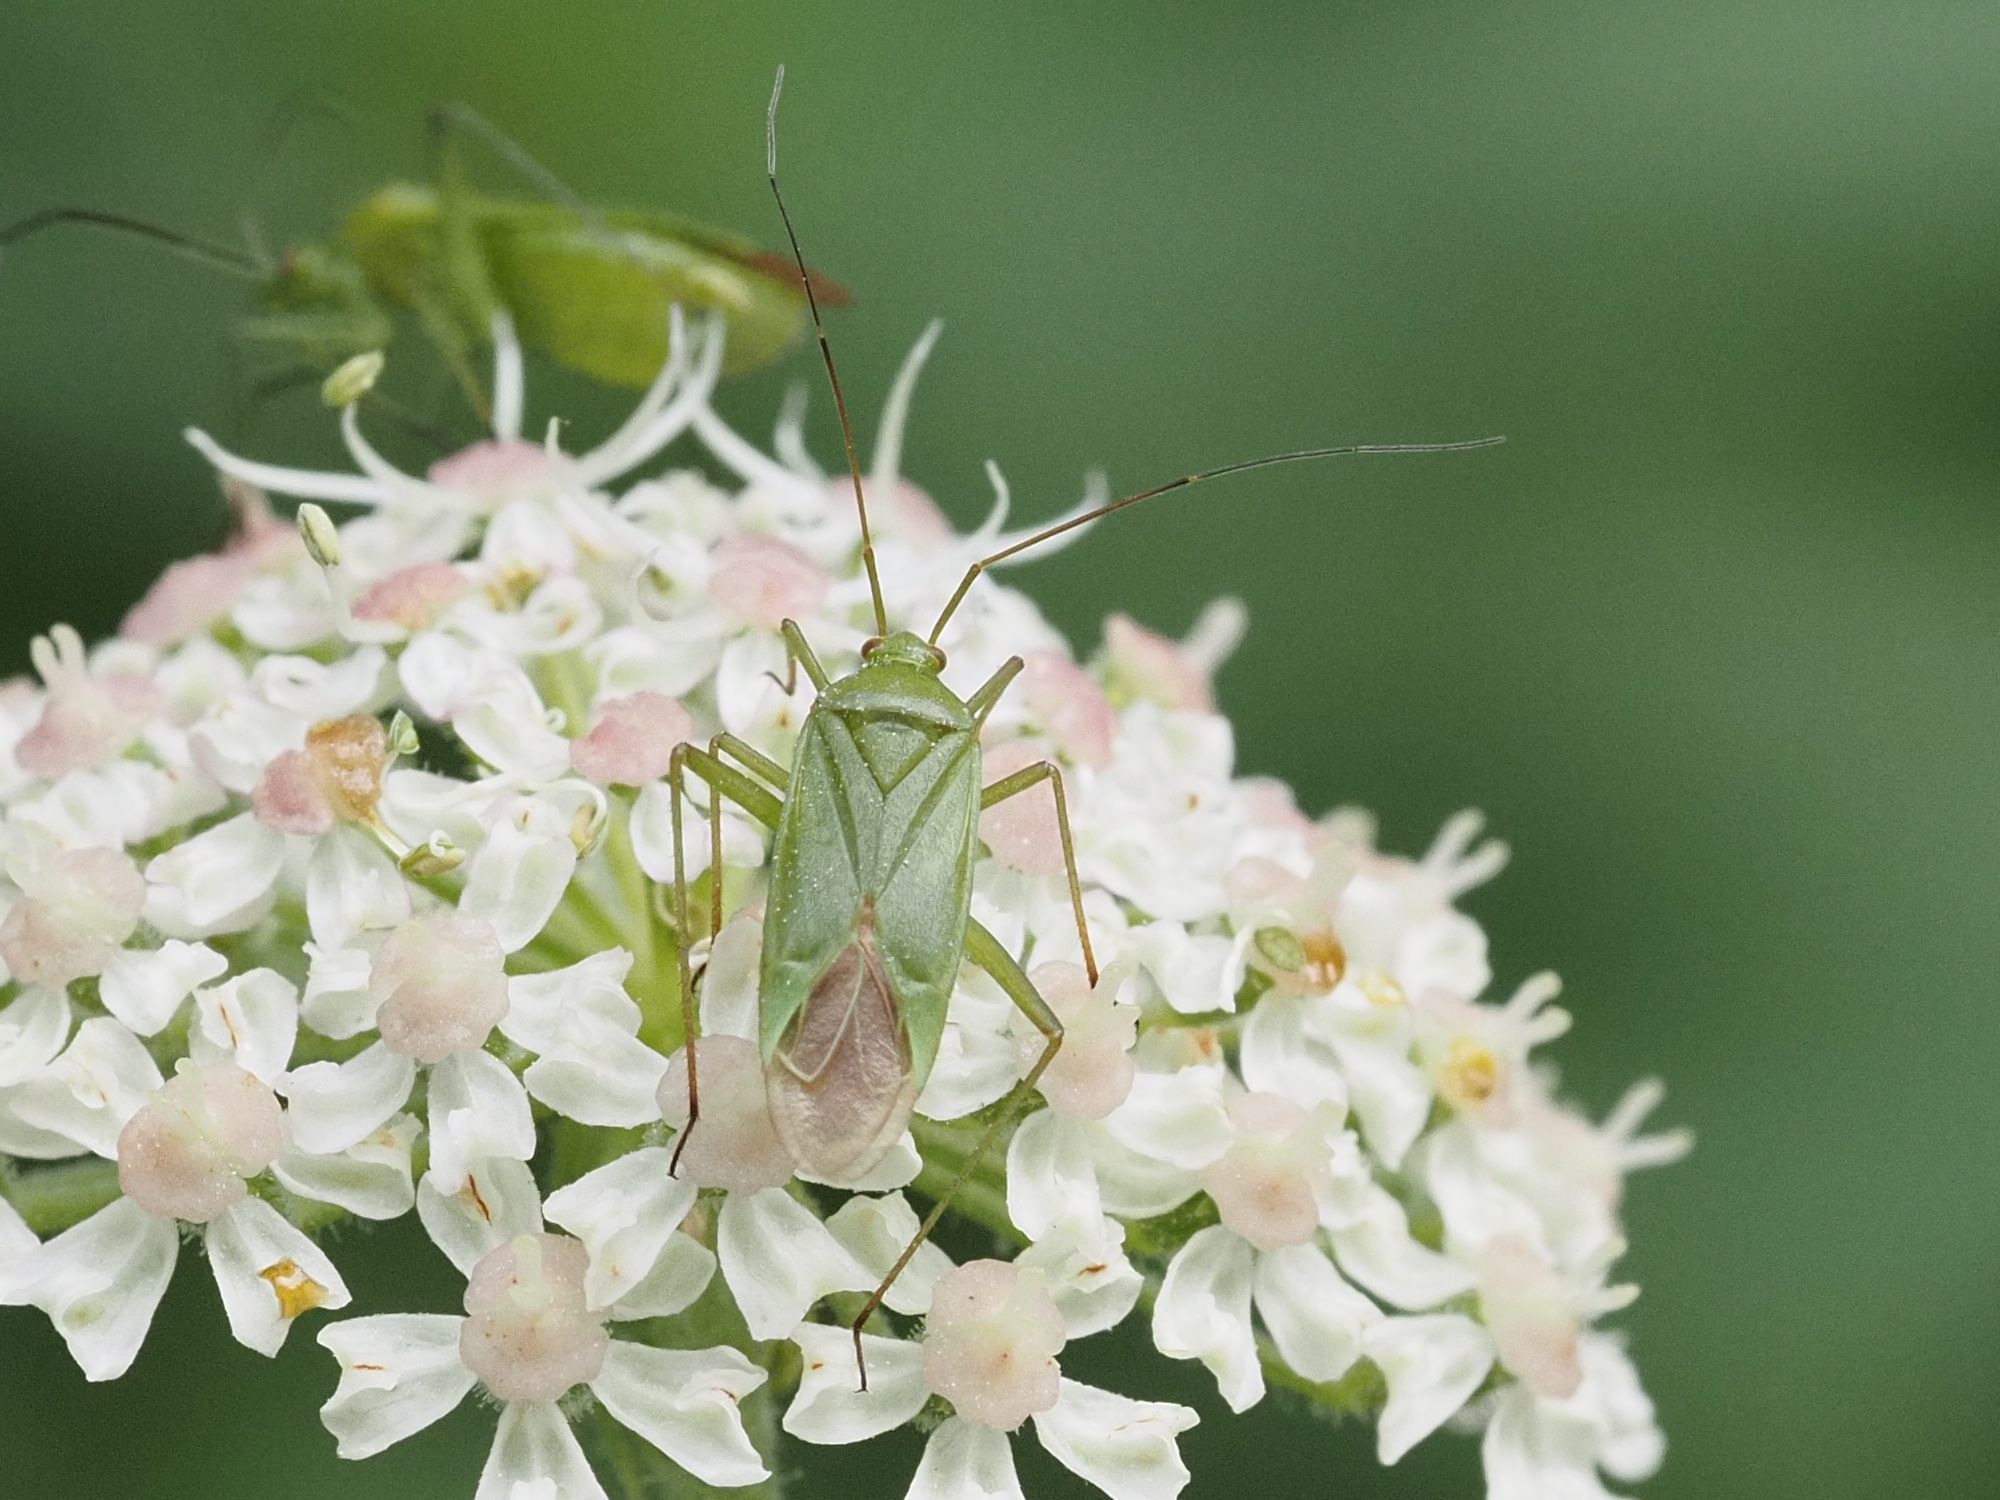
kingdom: Animalia
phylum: Arthropoda
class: Insecta
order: Hemiptera
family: Miridae
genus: Calocoris
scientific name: Calocoris affinis
